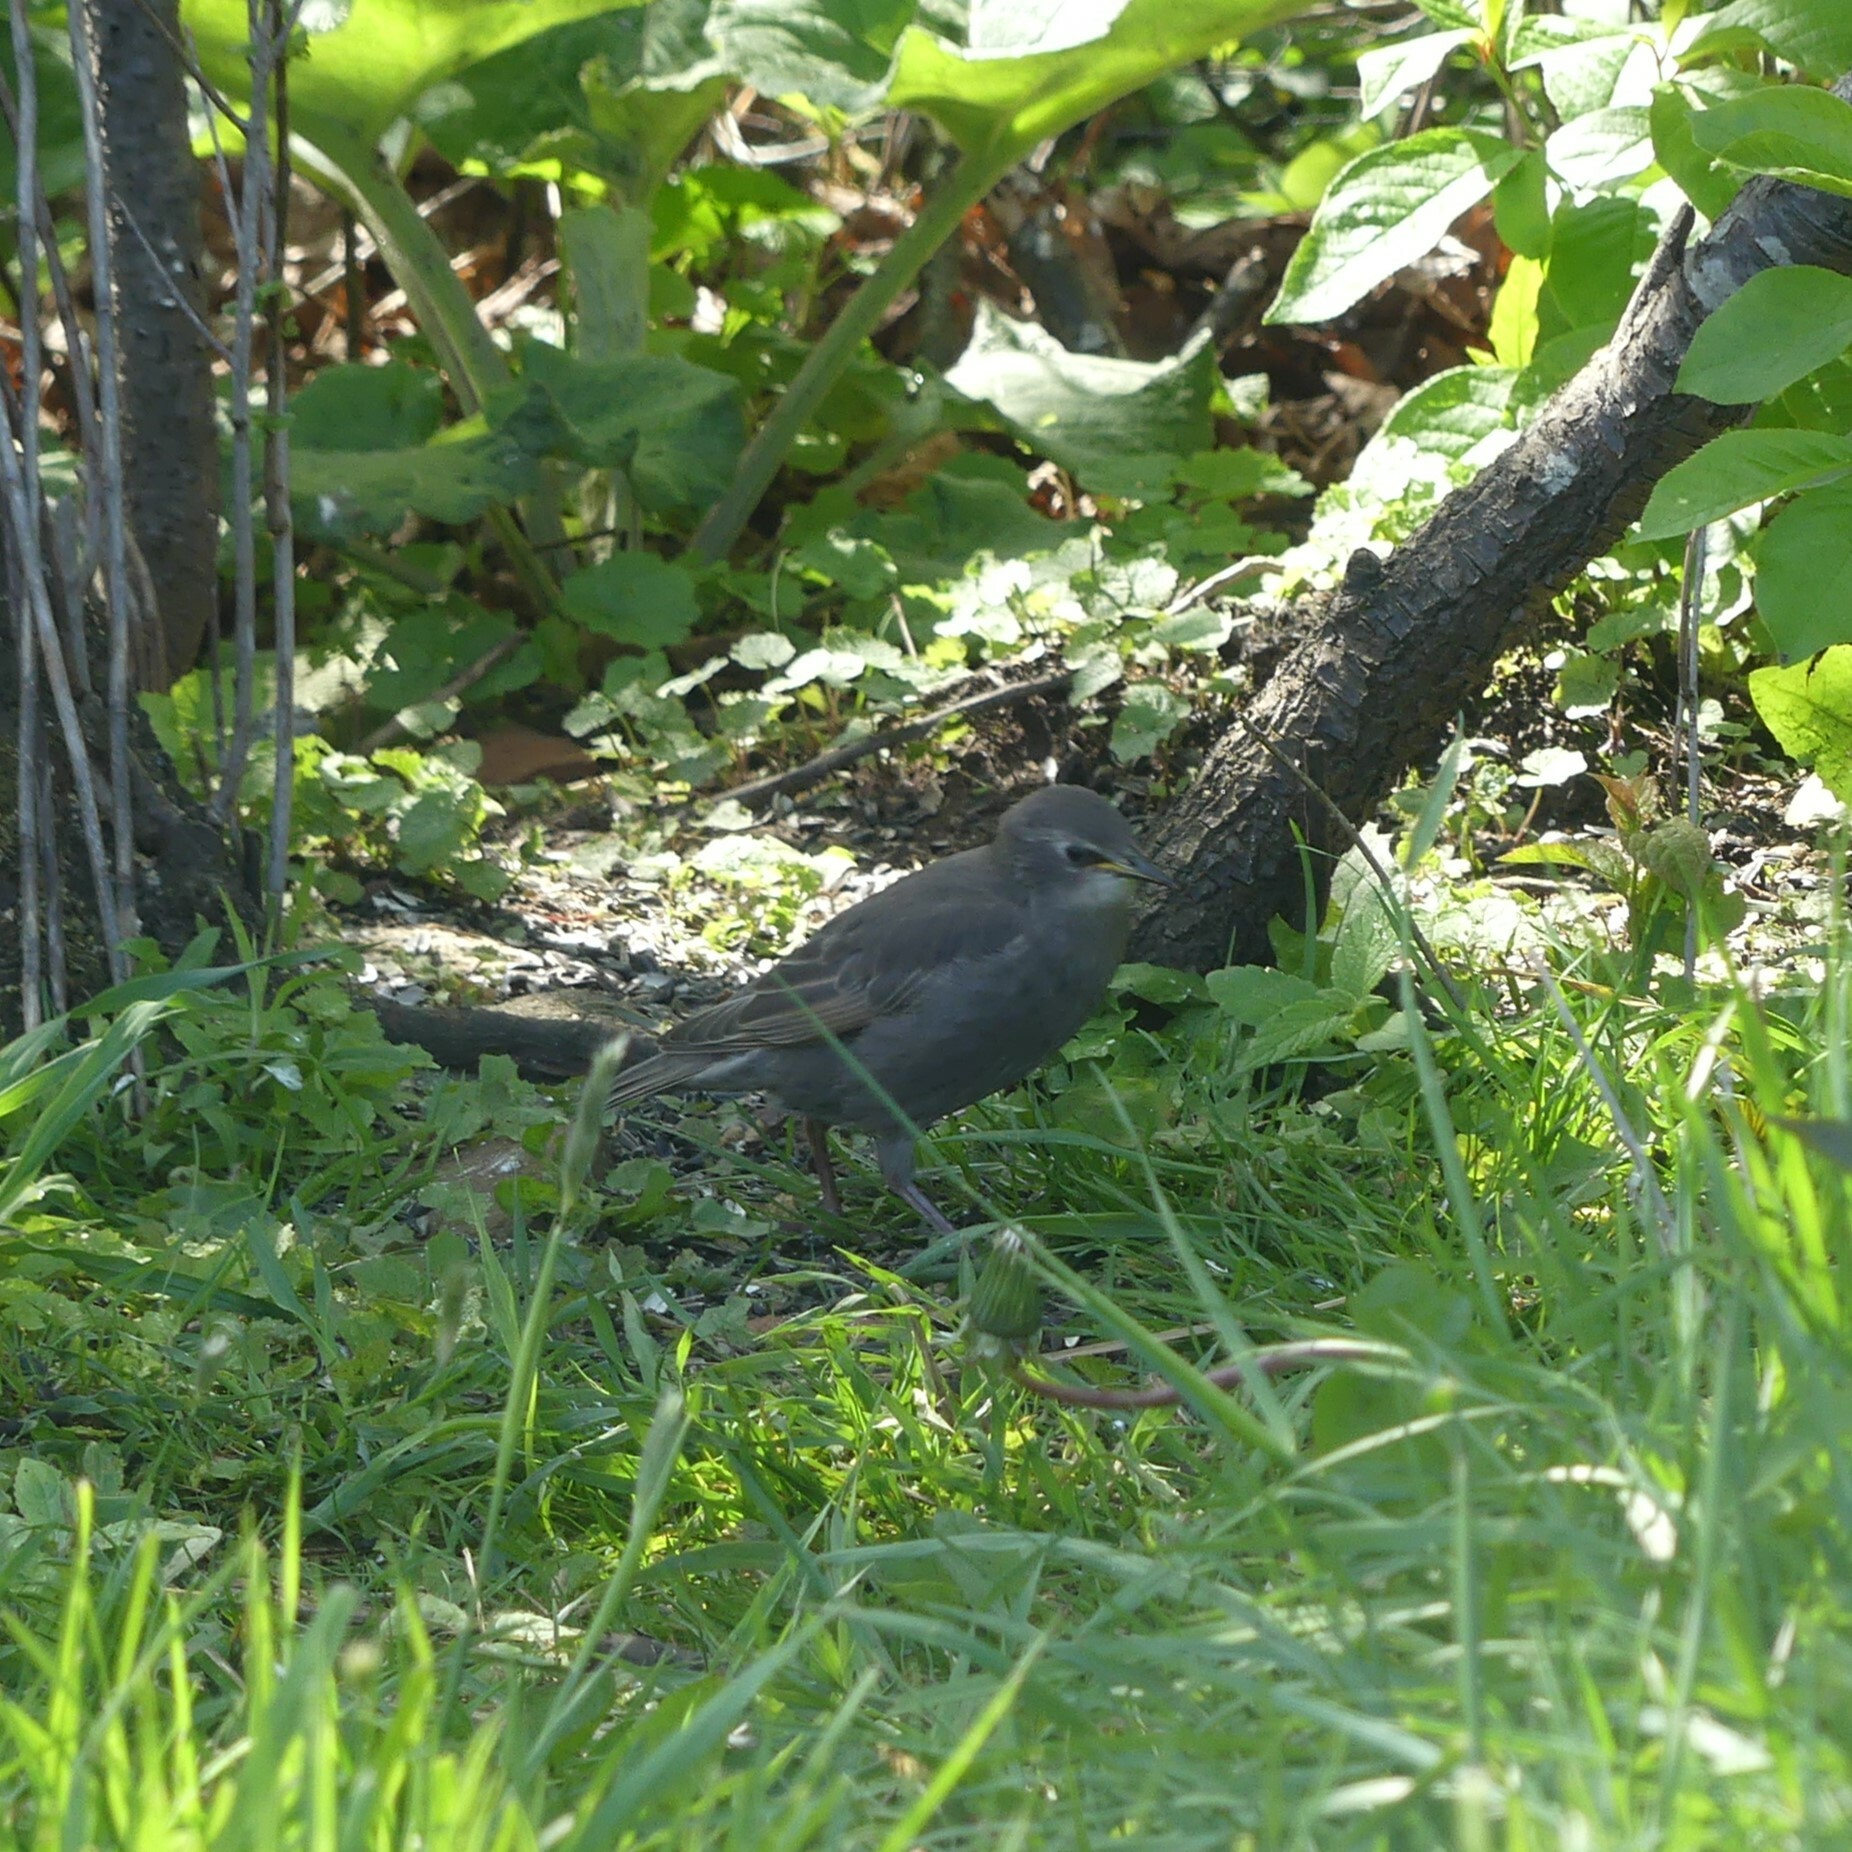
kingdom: Animalia
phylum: Chordata
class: Aves
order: Passeriformes
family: Sturnidae
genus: Sturnus
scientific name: Sturnus vulgaris
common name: Common starling
